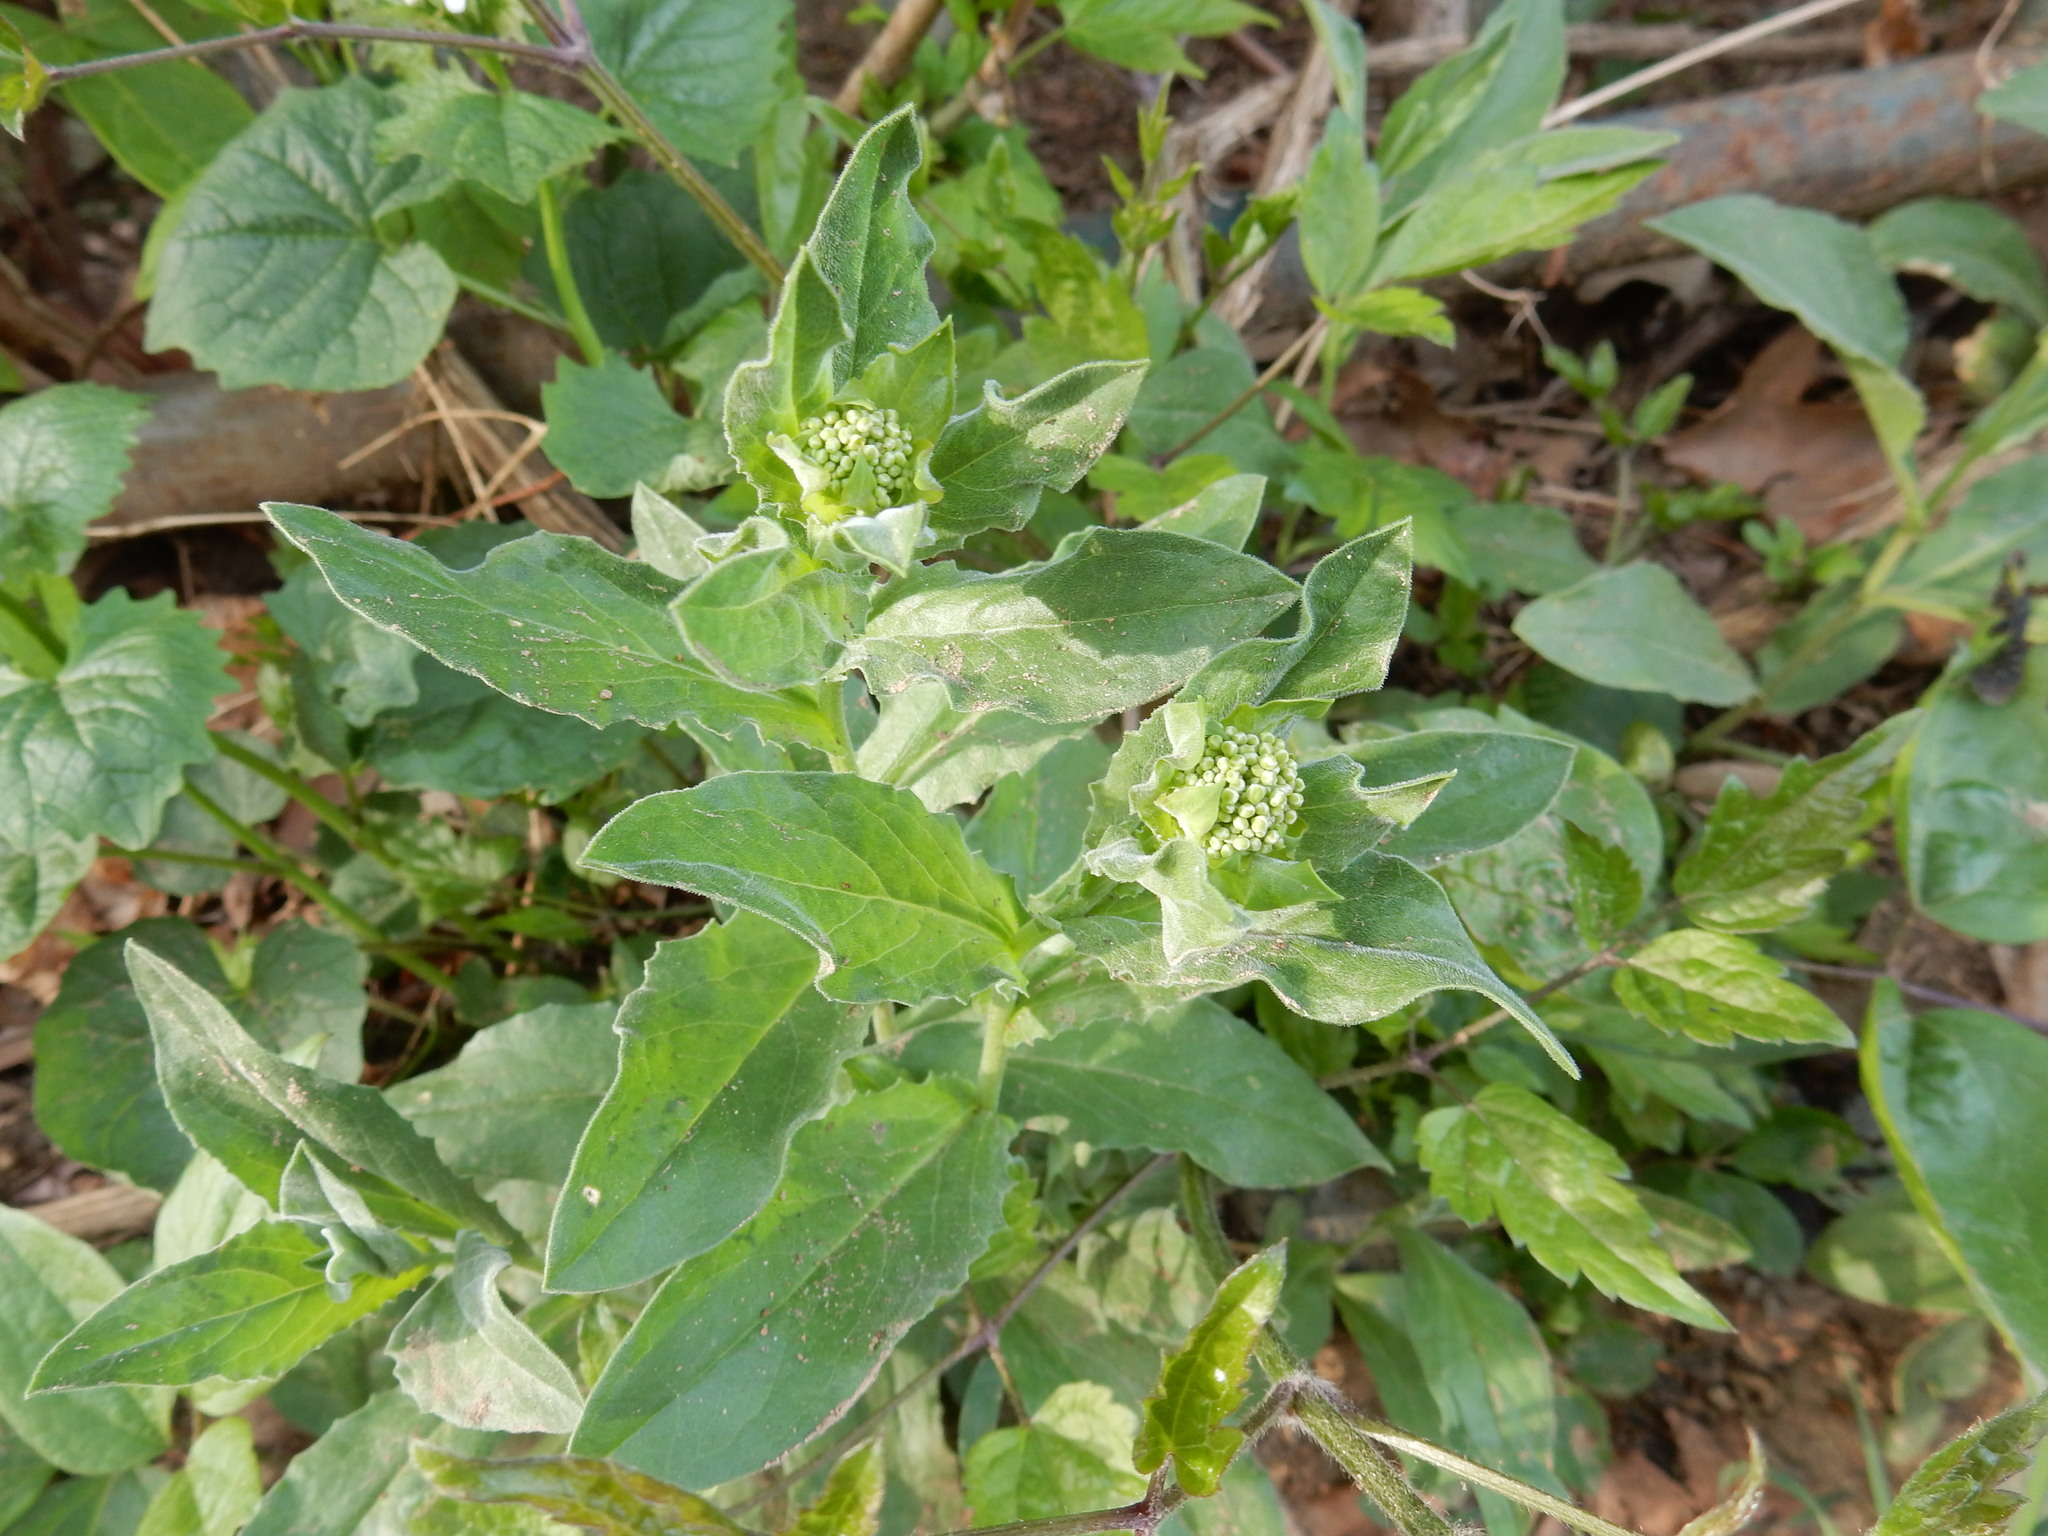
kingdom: Plantae
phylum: Tracheophyta
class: Magnoliopsida
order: Brassicales
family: Brassicaceae
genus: Lepidium
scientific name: Lepidium draba
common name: Hoary cress
